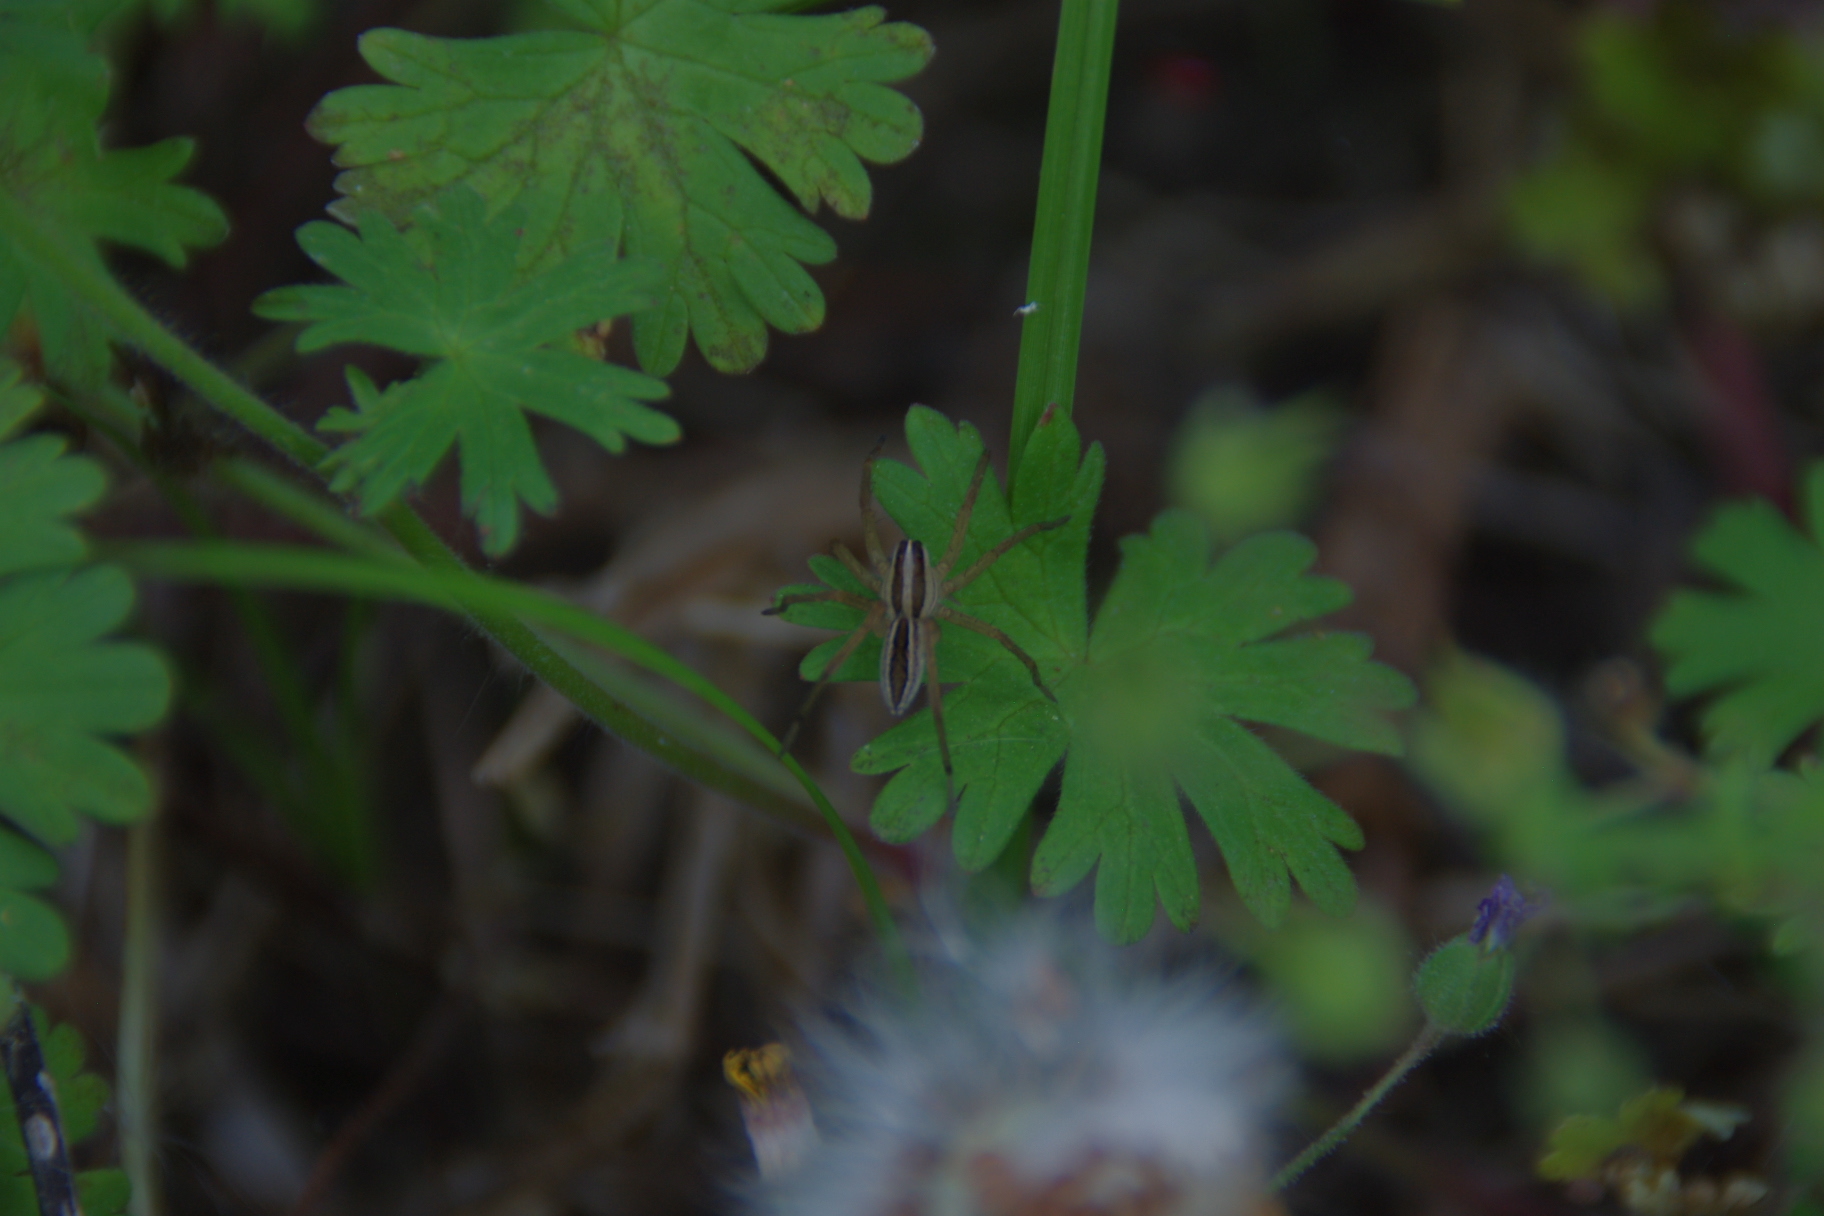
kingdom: Animalia
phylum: Arthropoda
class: Arachnida
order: Araneae
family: Lycosidae
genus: Rabidosa
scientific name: Rabidosa punctulata
